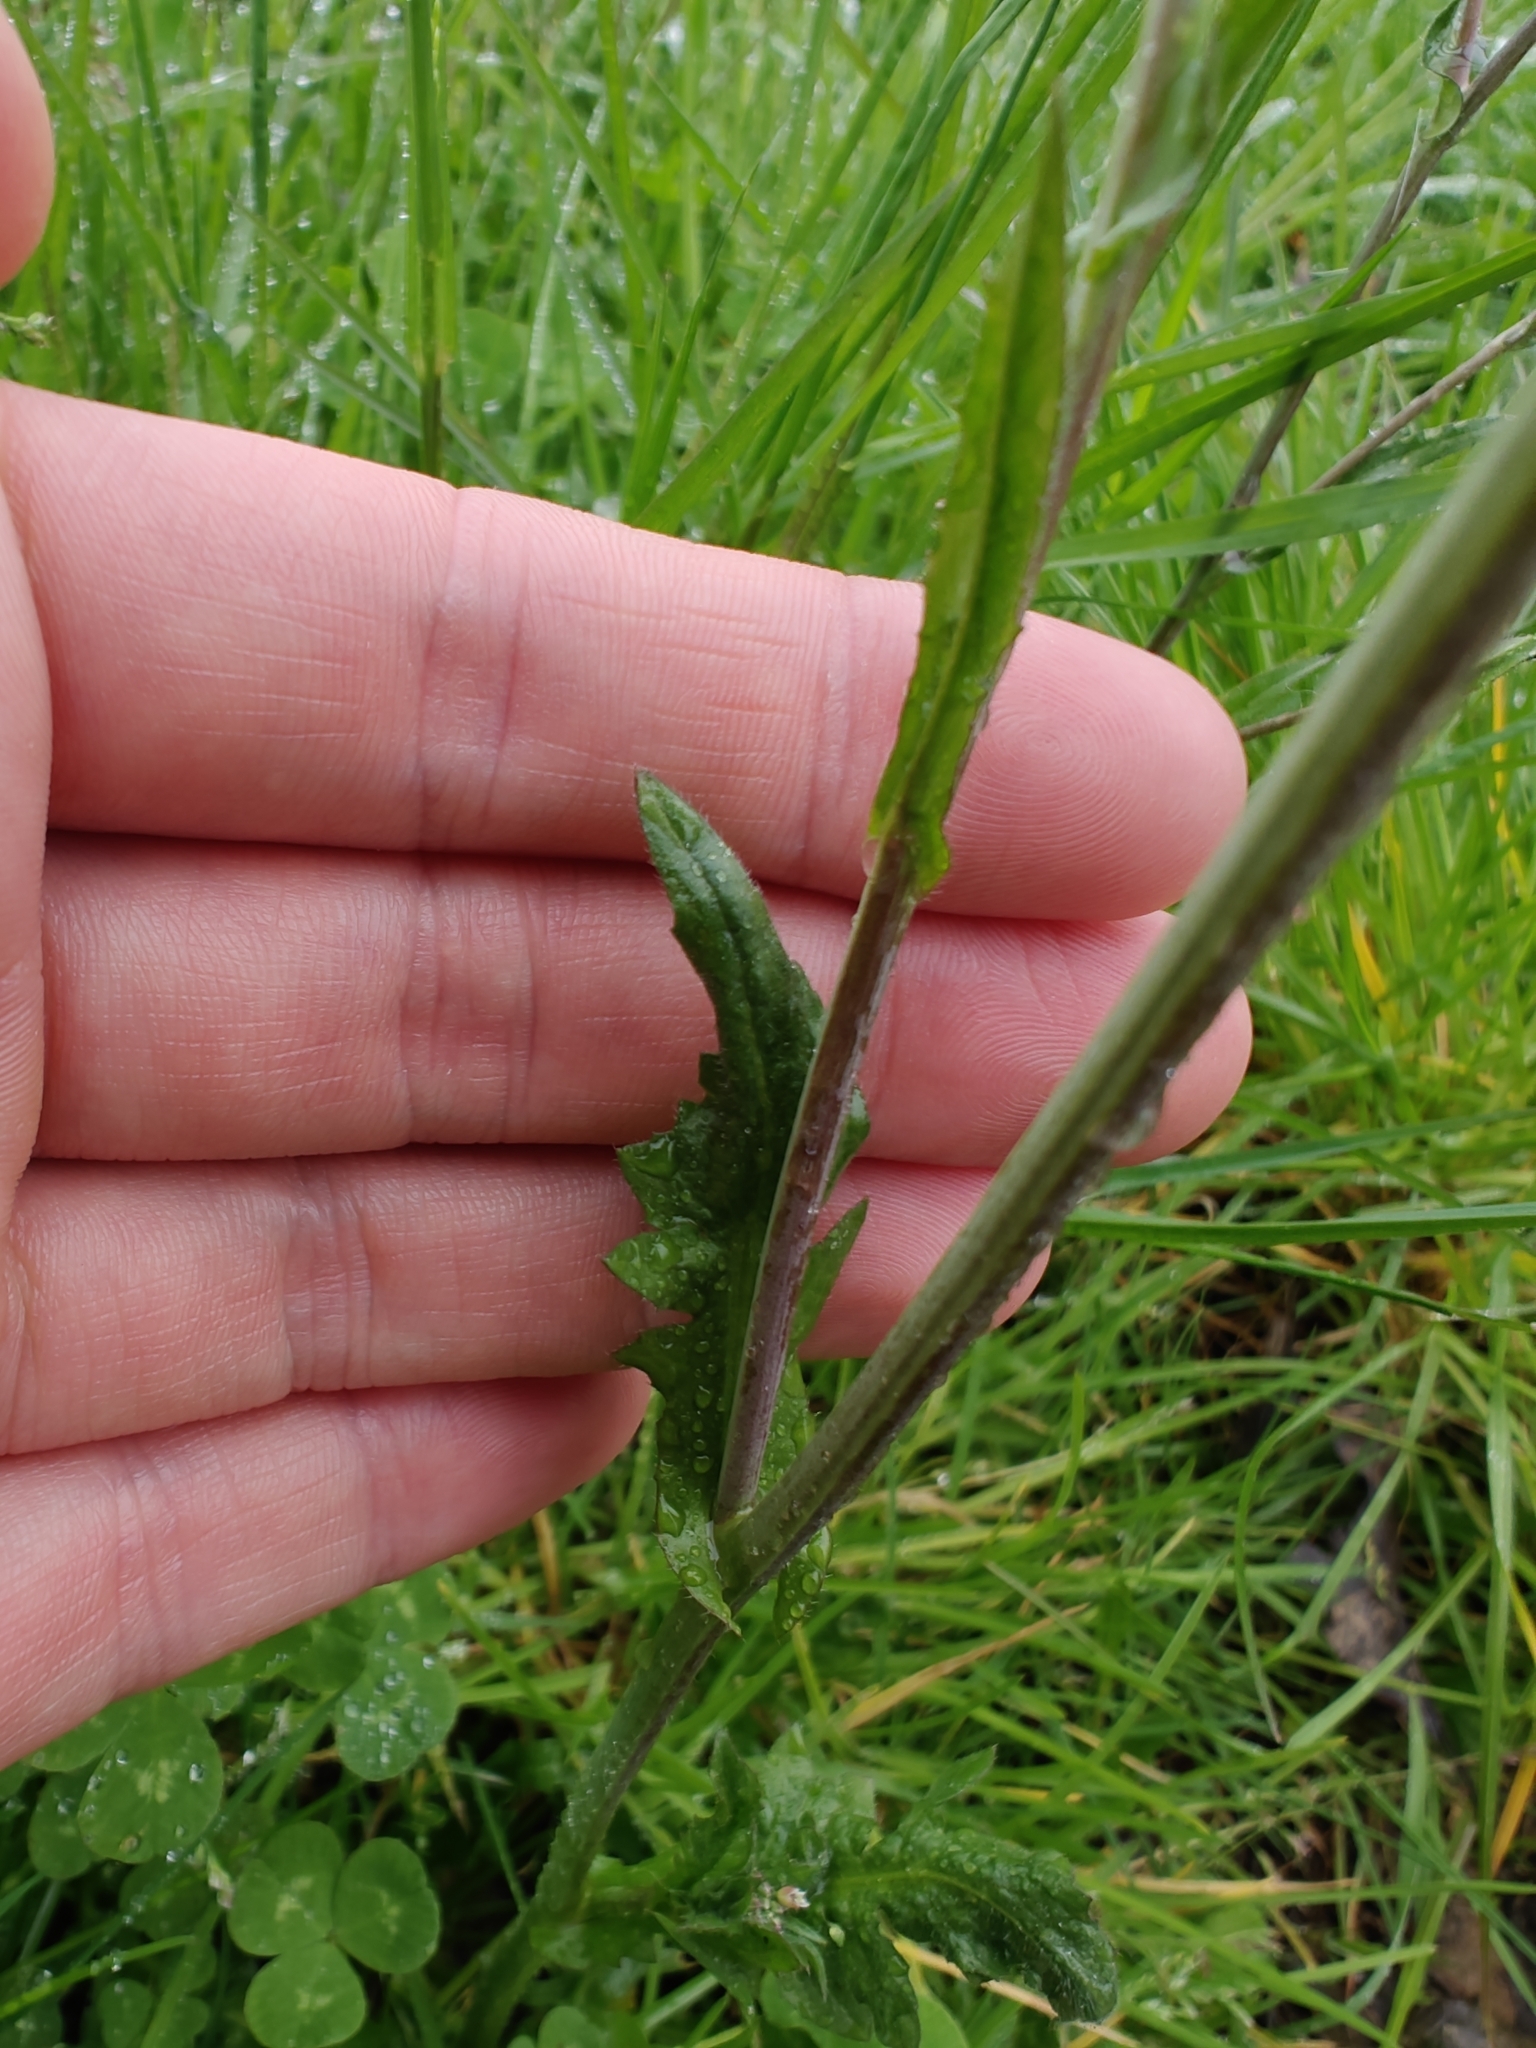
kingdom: Plantae
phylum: Tracheophyta
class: Magnoliopsida
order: Brassicales
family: Brassicaceae
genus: Capsella
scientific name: Capsella bursa-pastoris
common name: Shepherd's purse
